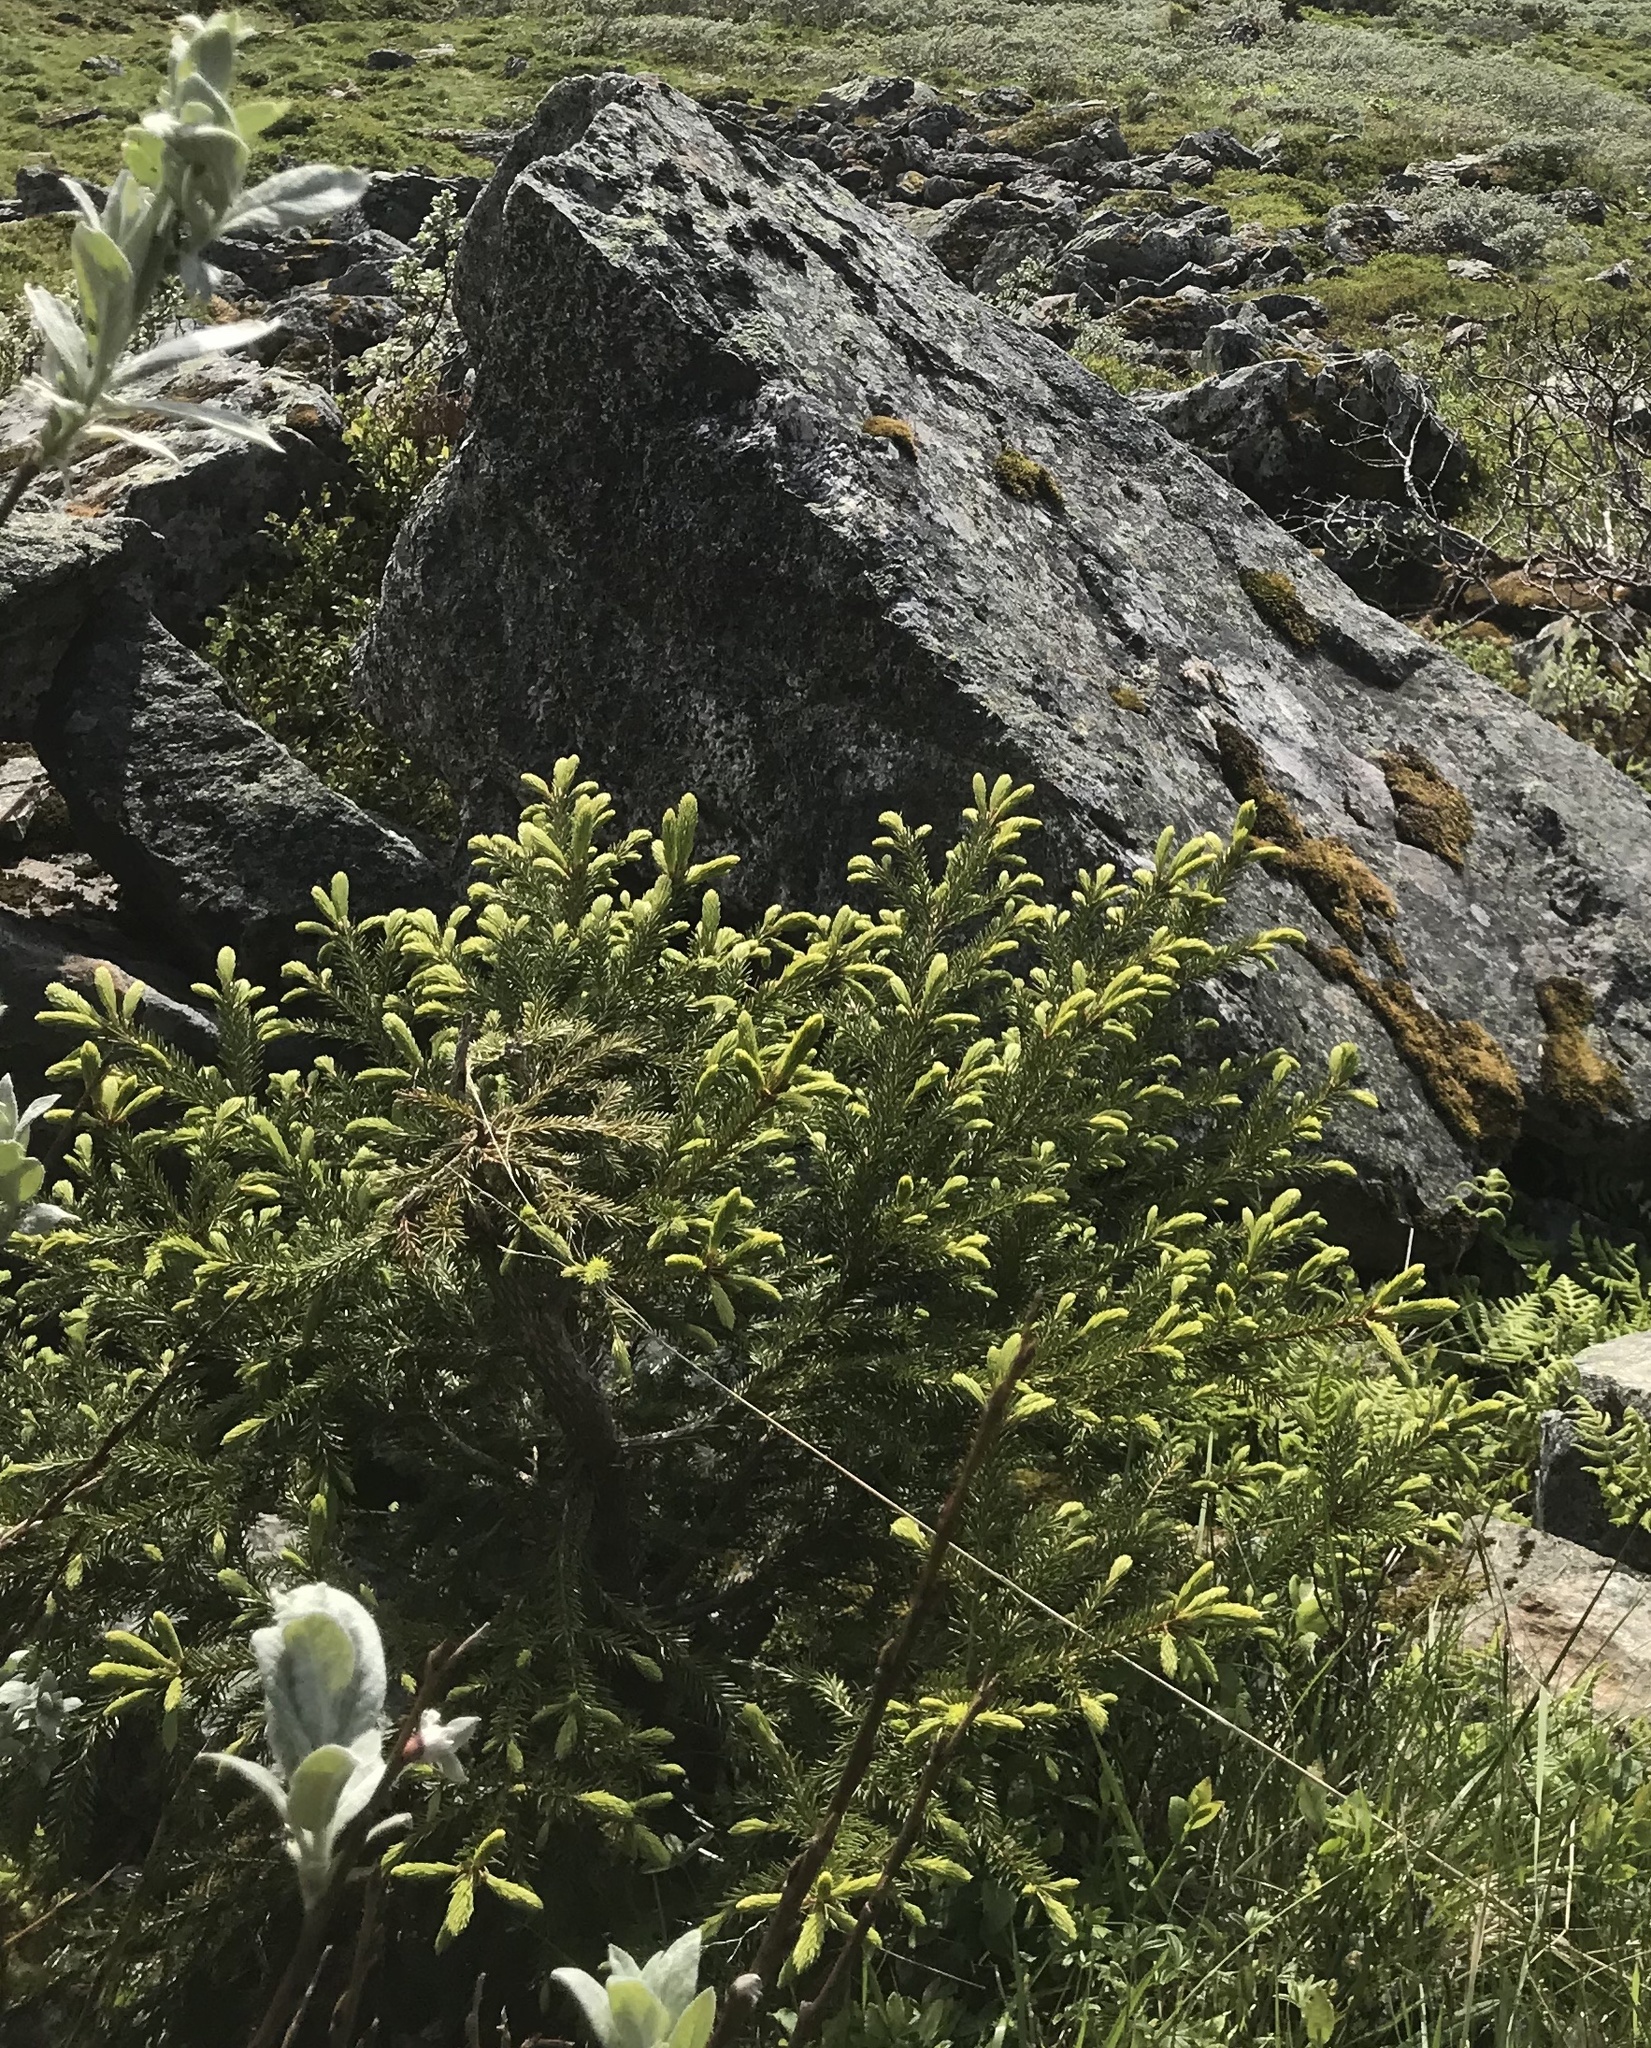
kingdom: Plantae
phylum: Tracheophyta
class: Pinopsida
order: Pinales
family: Pinaceae
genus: Picea
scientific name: Picea abies
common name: Norway spruce
